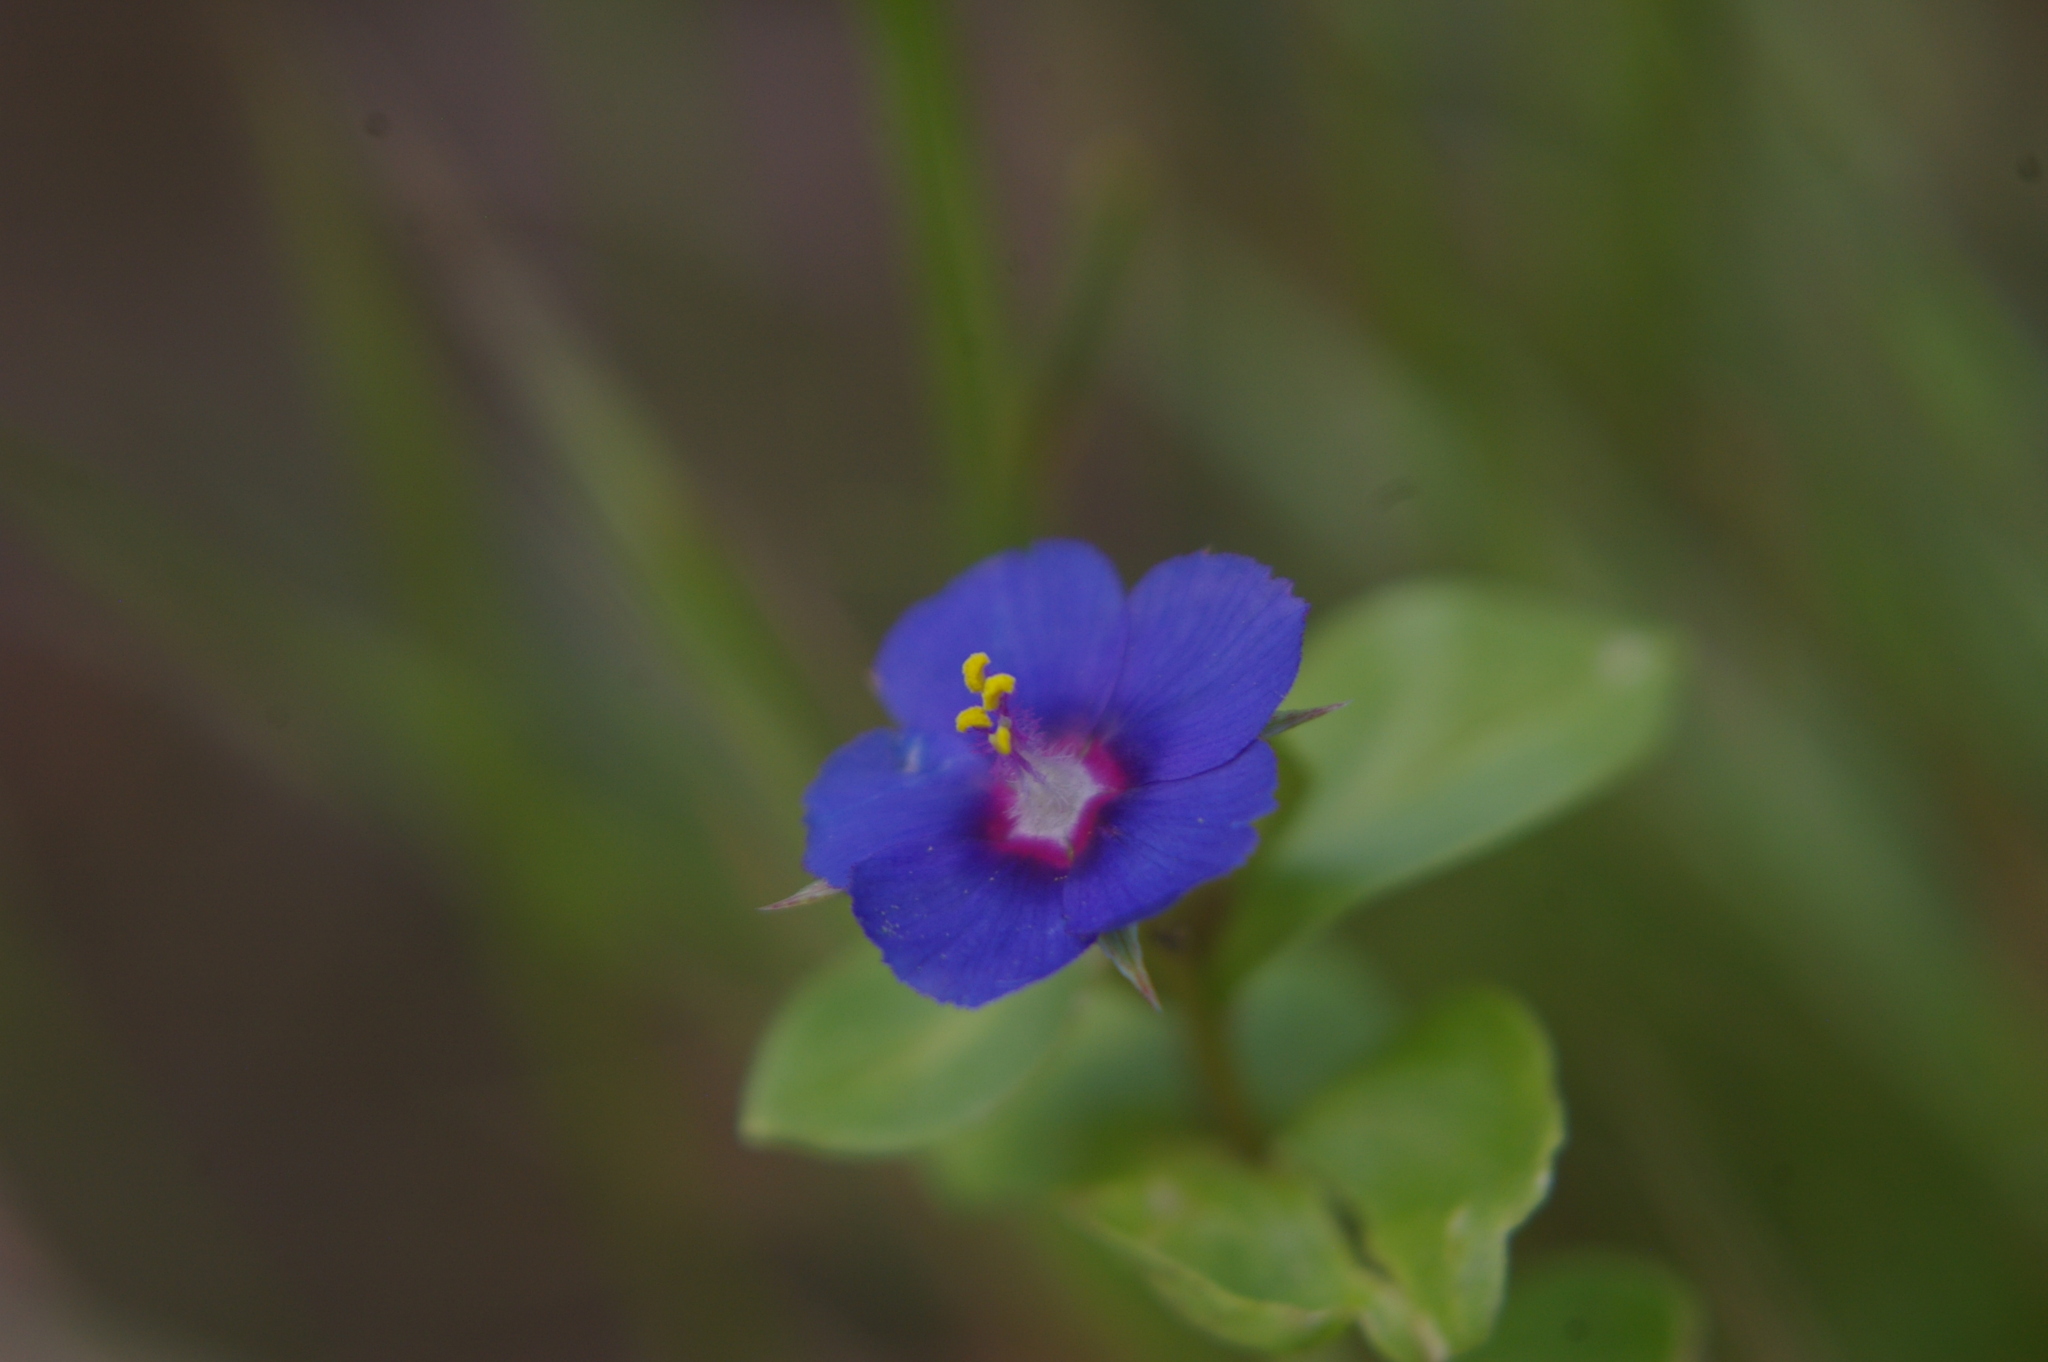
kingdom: Plantae
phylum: Tracheophyta
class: Magnoliopsida
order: Ericales
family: Primulaceae
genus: Lysimachia
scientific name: Lysimachia loeflingii
